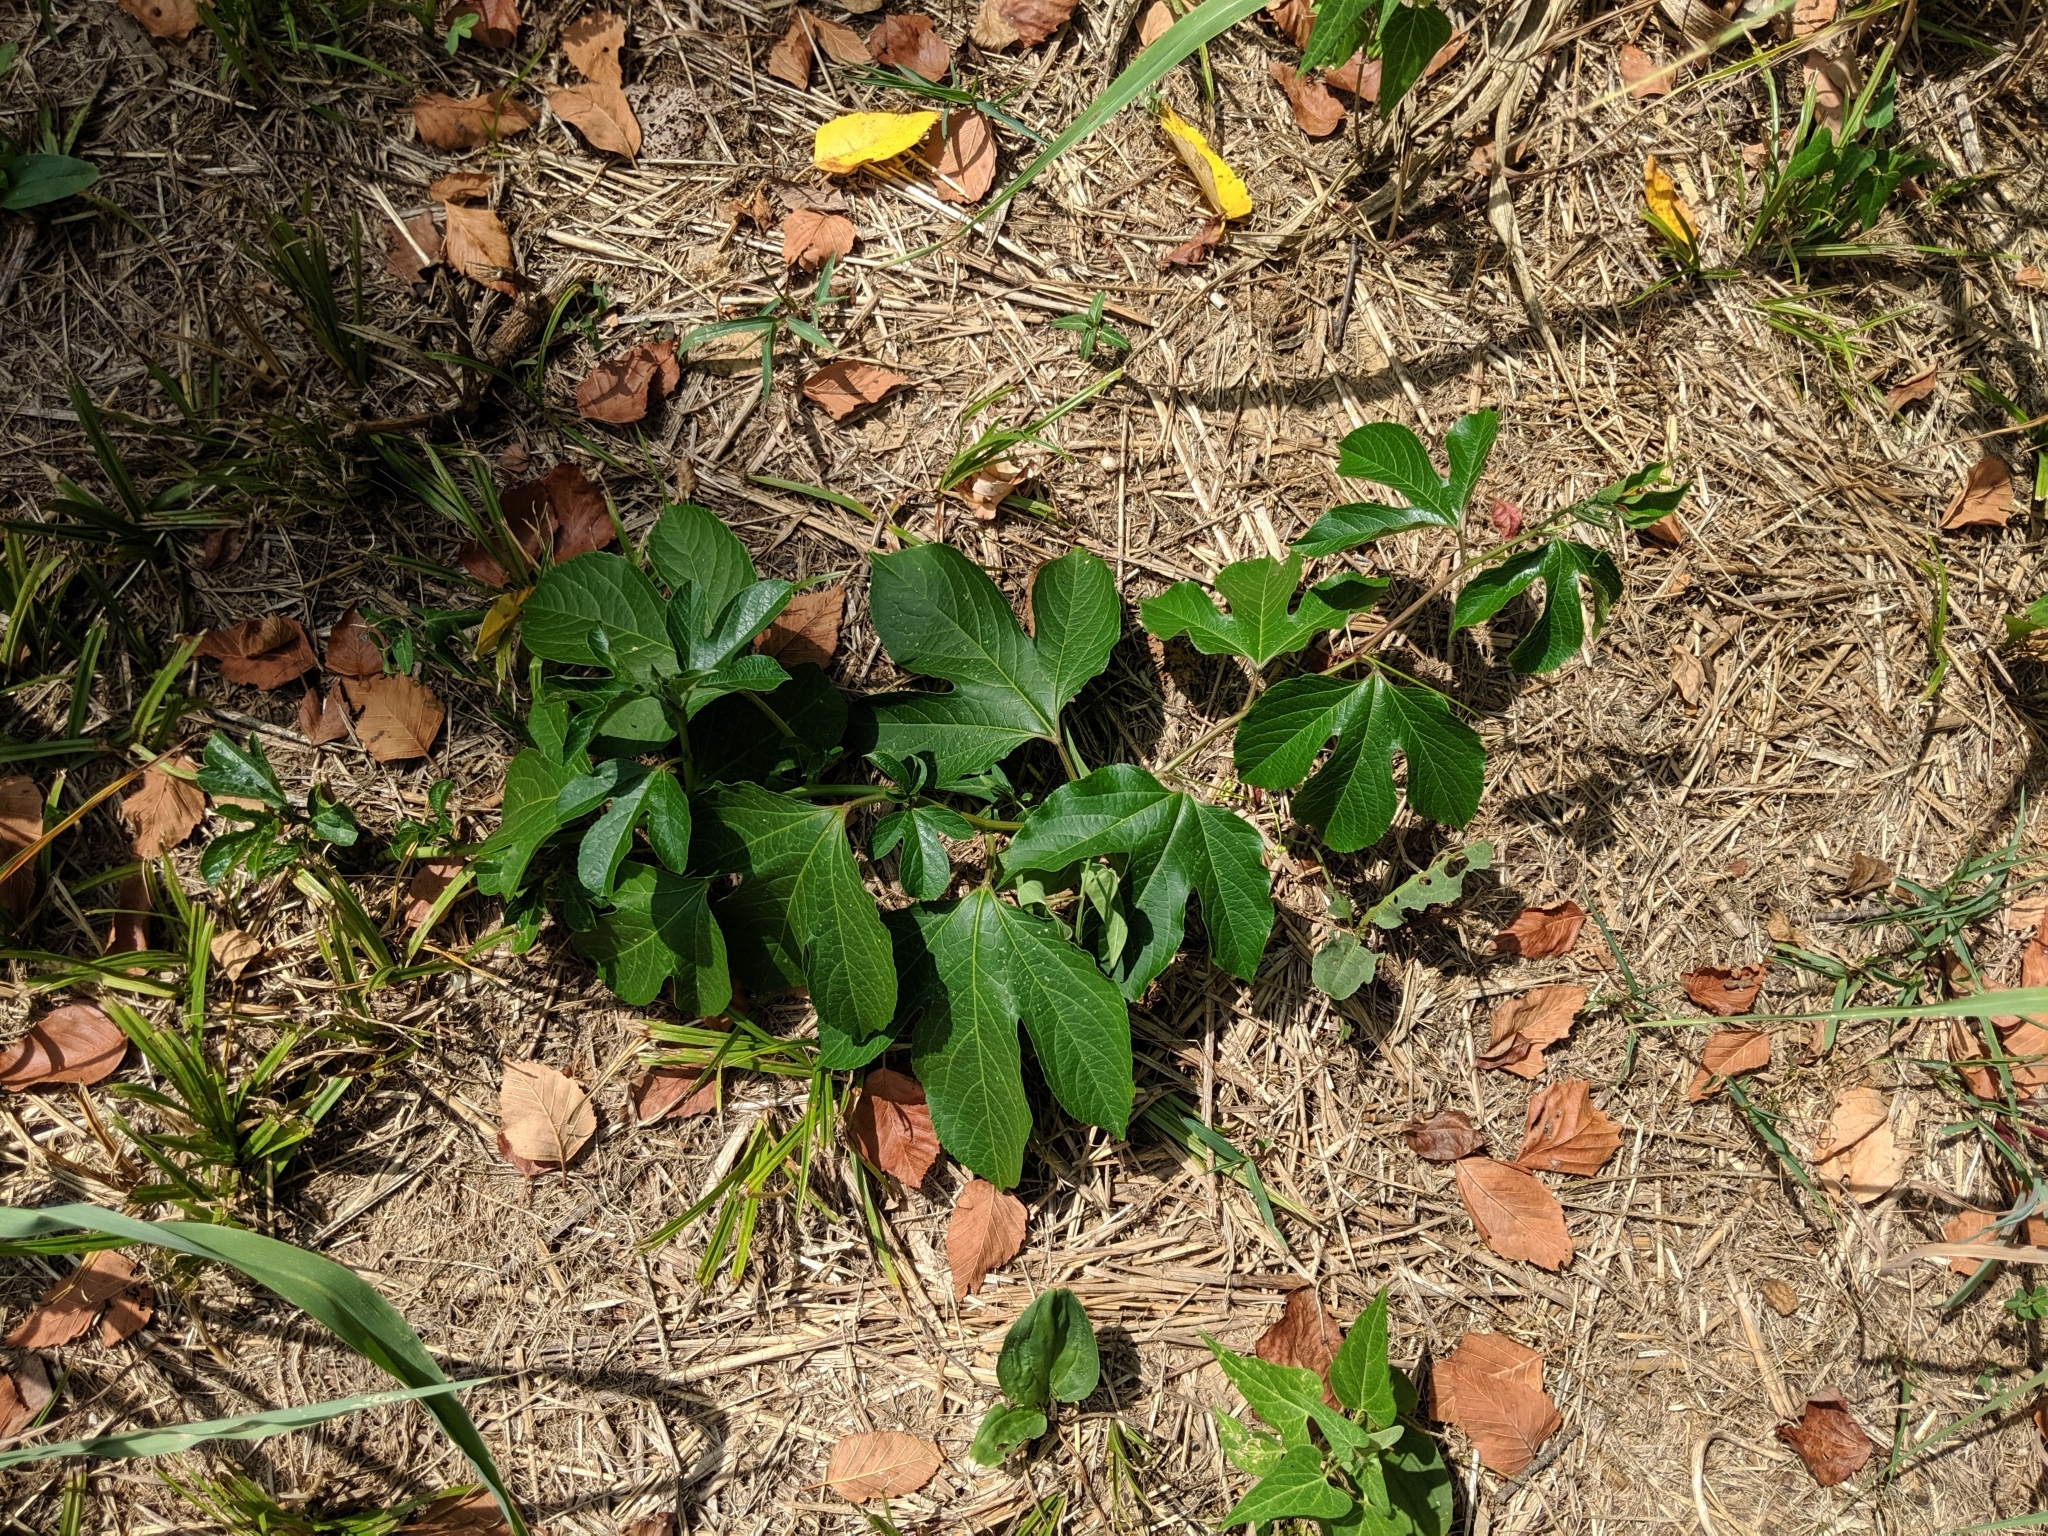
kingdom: Plantae
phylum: Tracheophyta
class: Magnoliopsida
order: Malpighiales
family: Passifloraceae
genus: Passiflora
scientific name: Passiflora incarnata
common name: Apricot-vine
